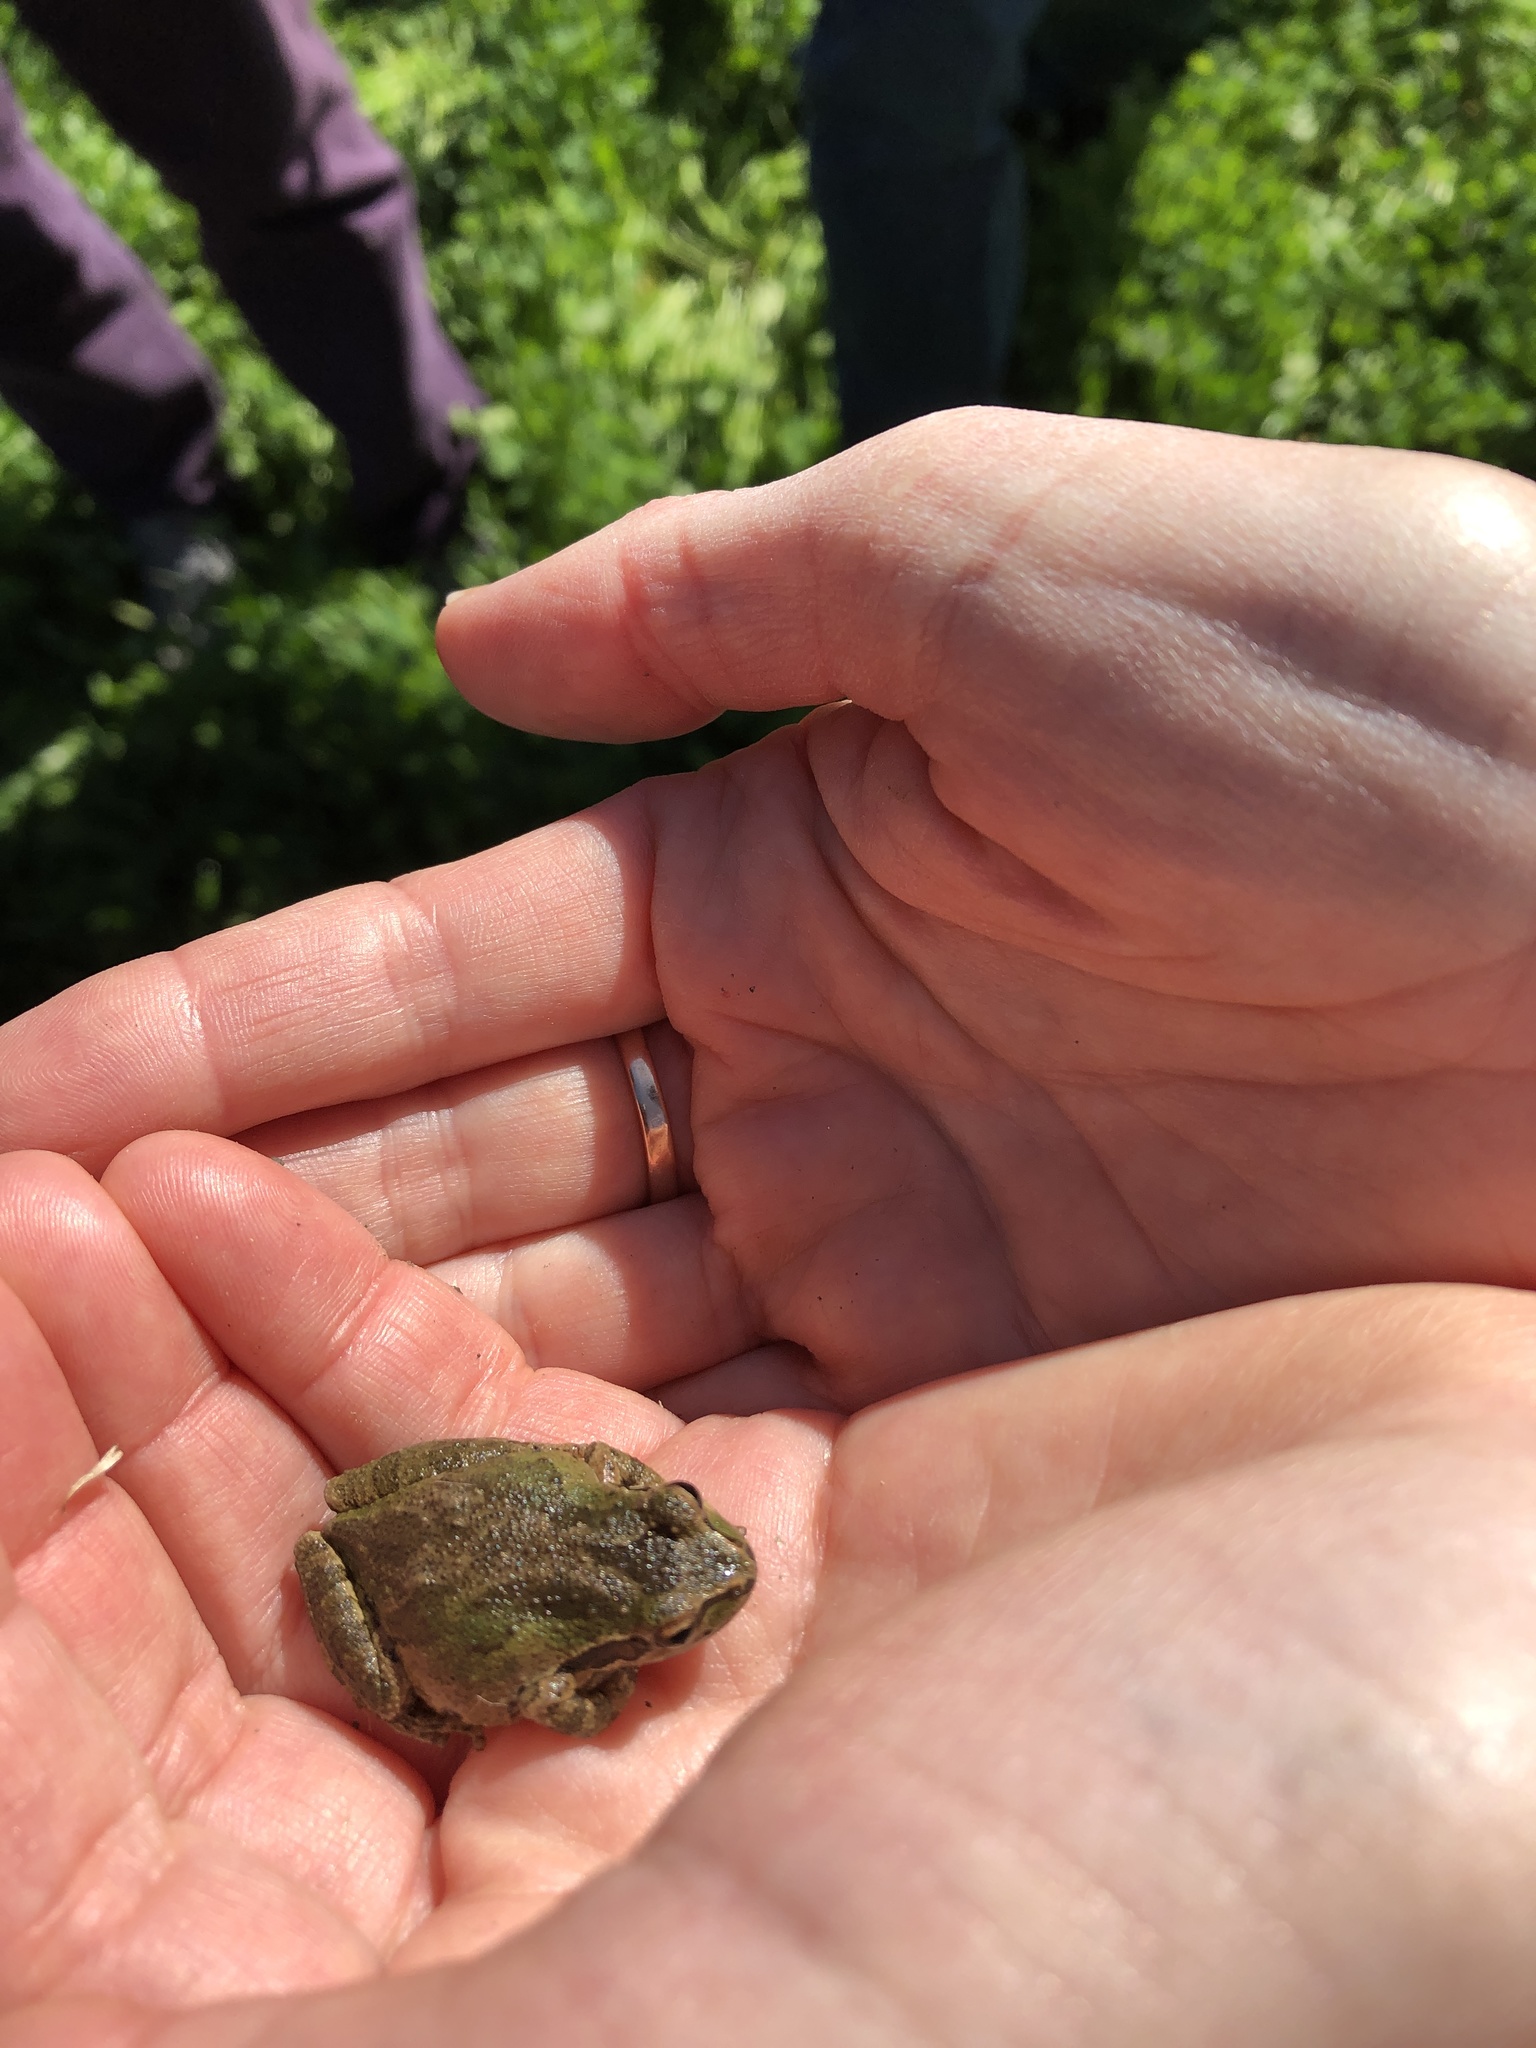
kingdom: Animalia
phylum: Chordata
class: Amphibia
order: Anura
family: Hylidae
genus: Pseudacris
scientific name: Pseudacris regilla
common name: Pacific chorus frog
